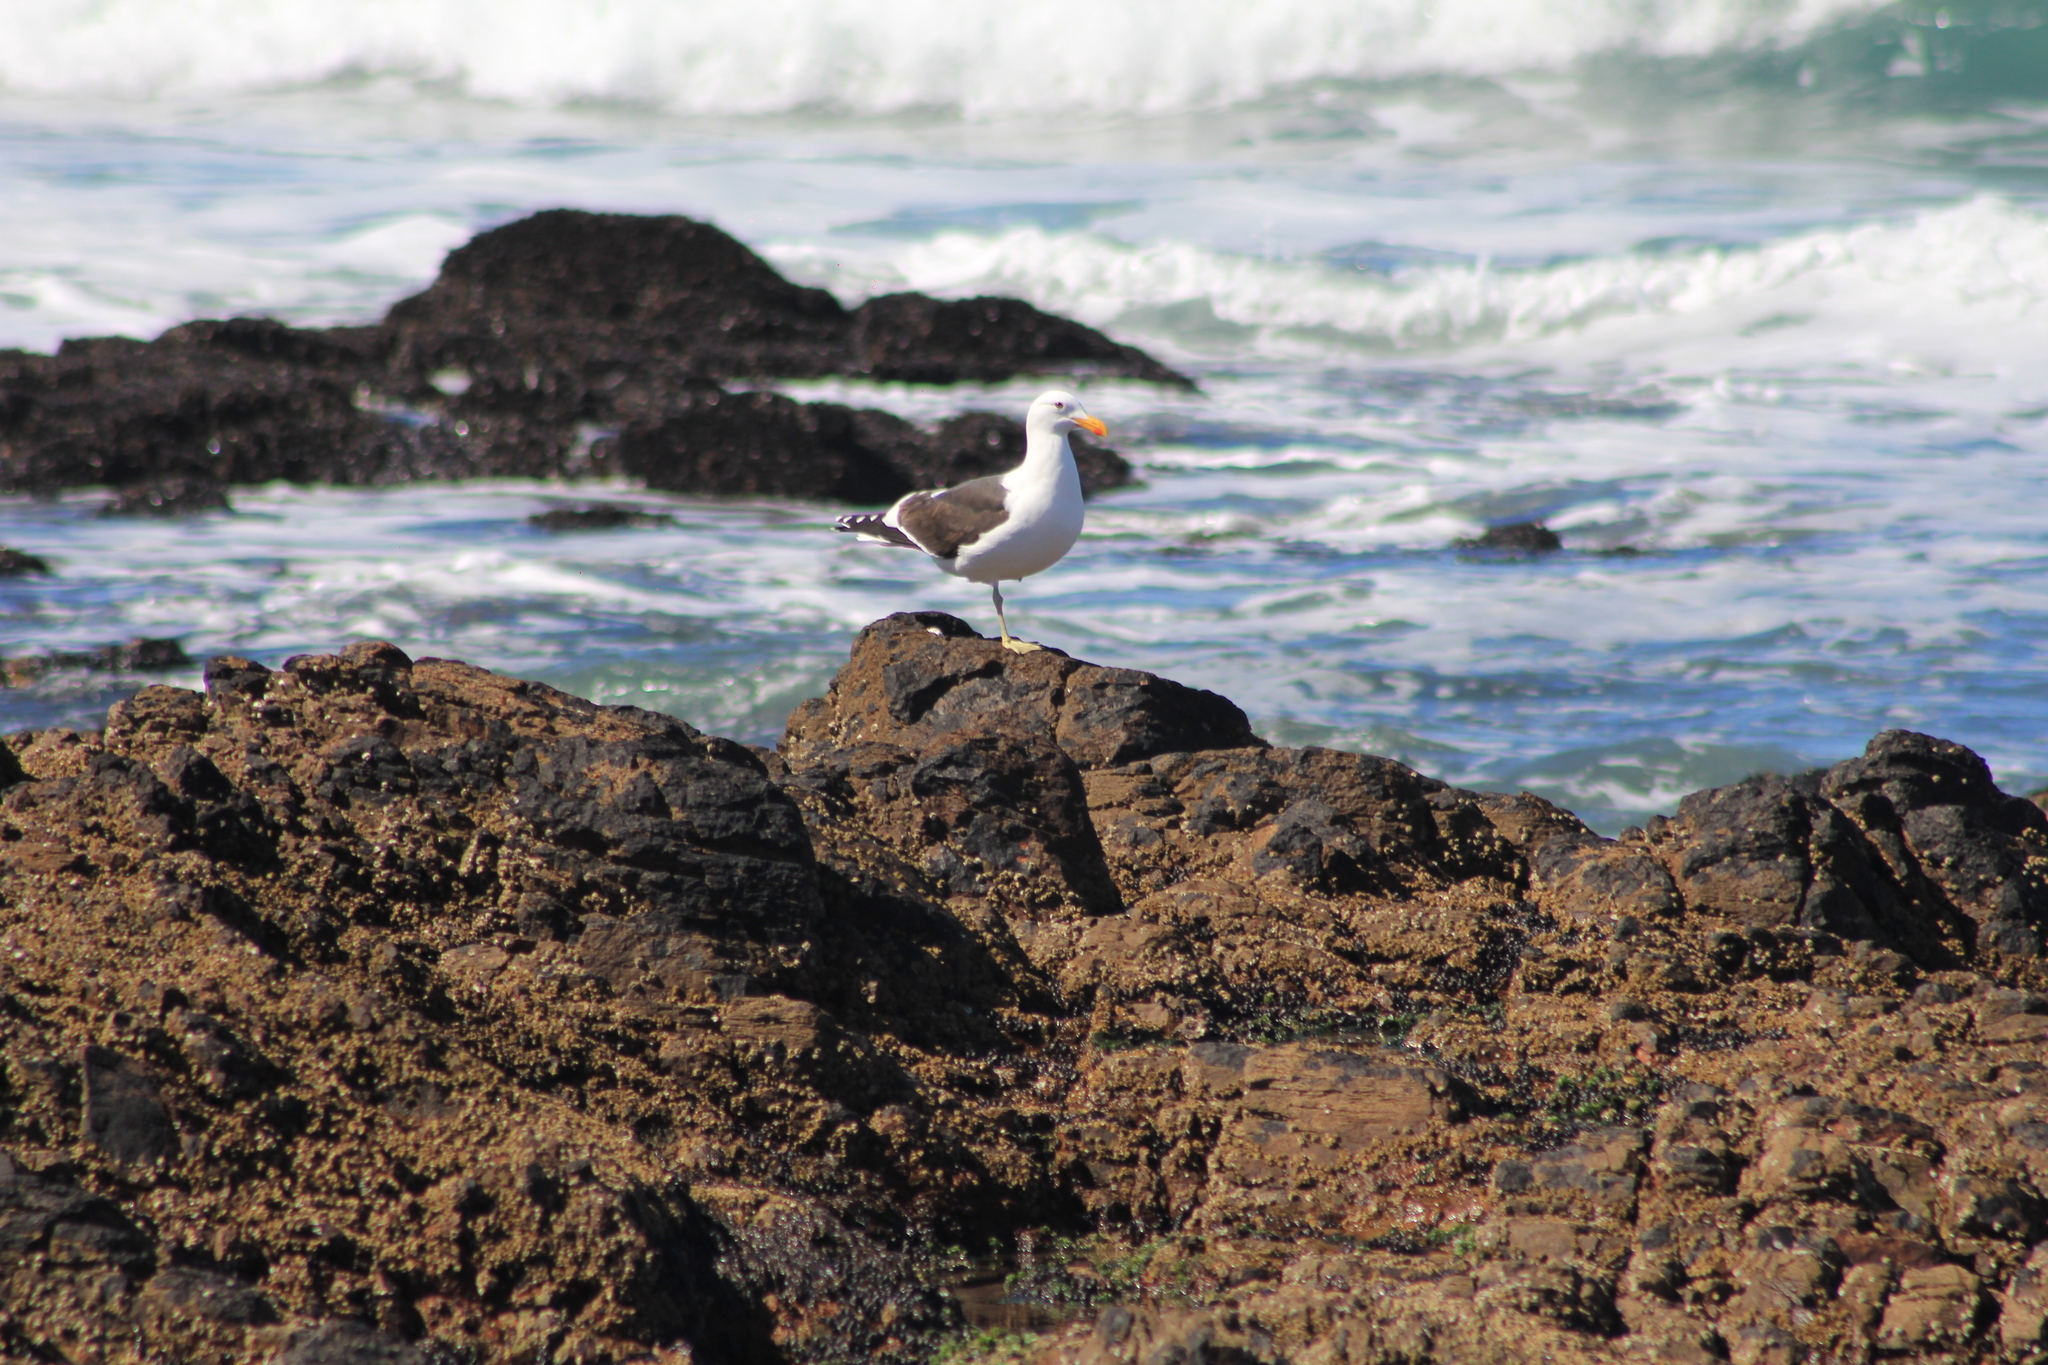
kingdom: Animalia
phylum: Chordata
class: Aves
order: Charadriiformes
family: Laridae
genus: Larus
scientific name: Larus dominicanus
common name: Kelp gull
